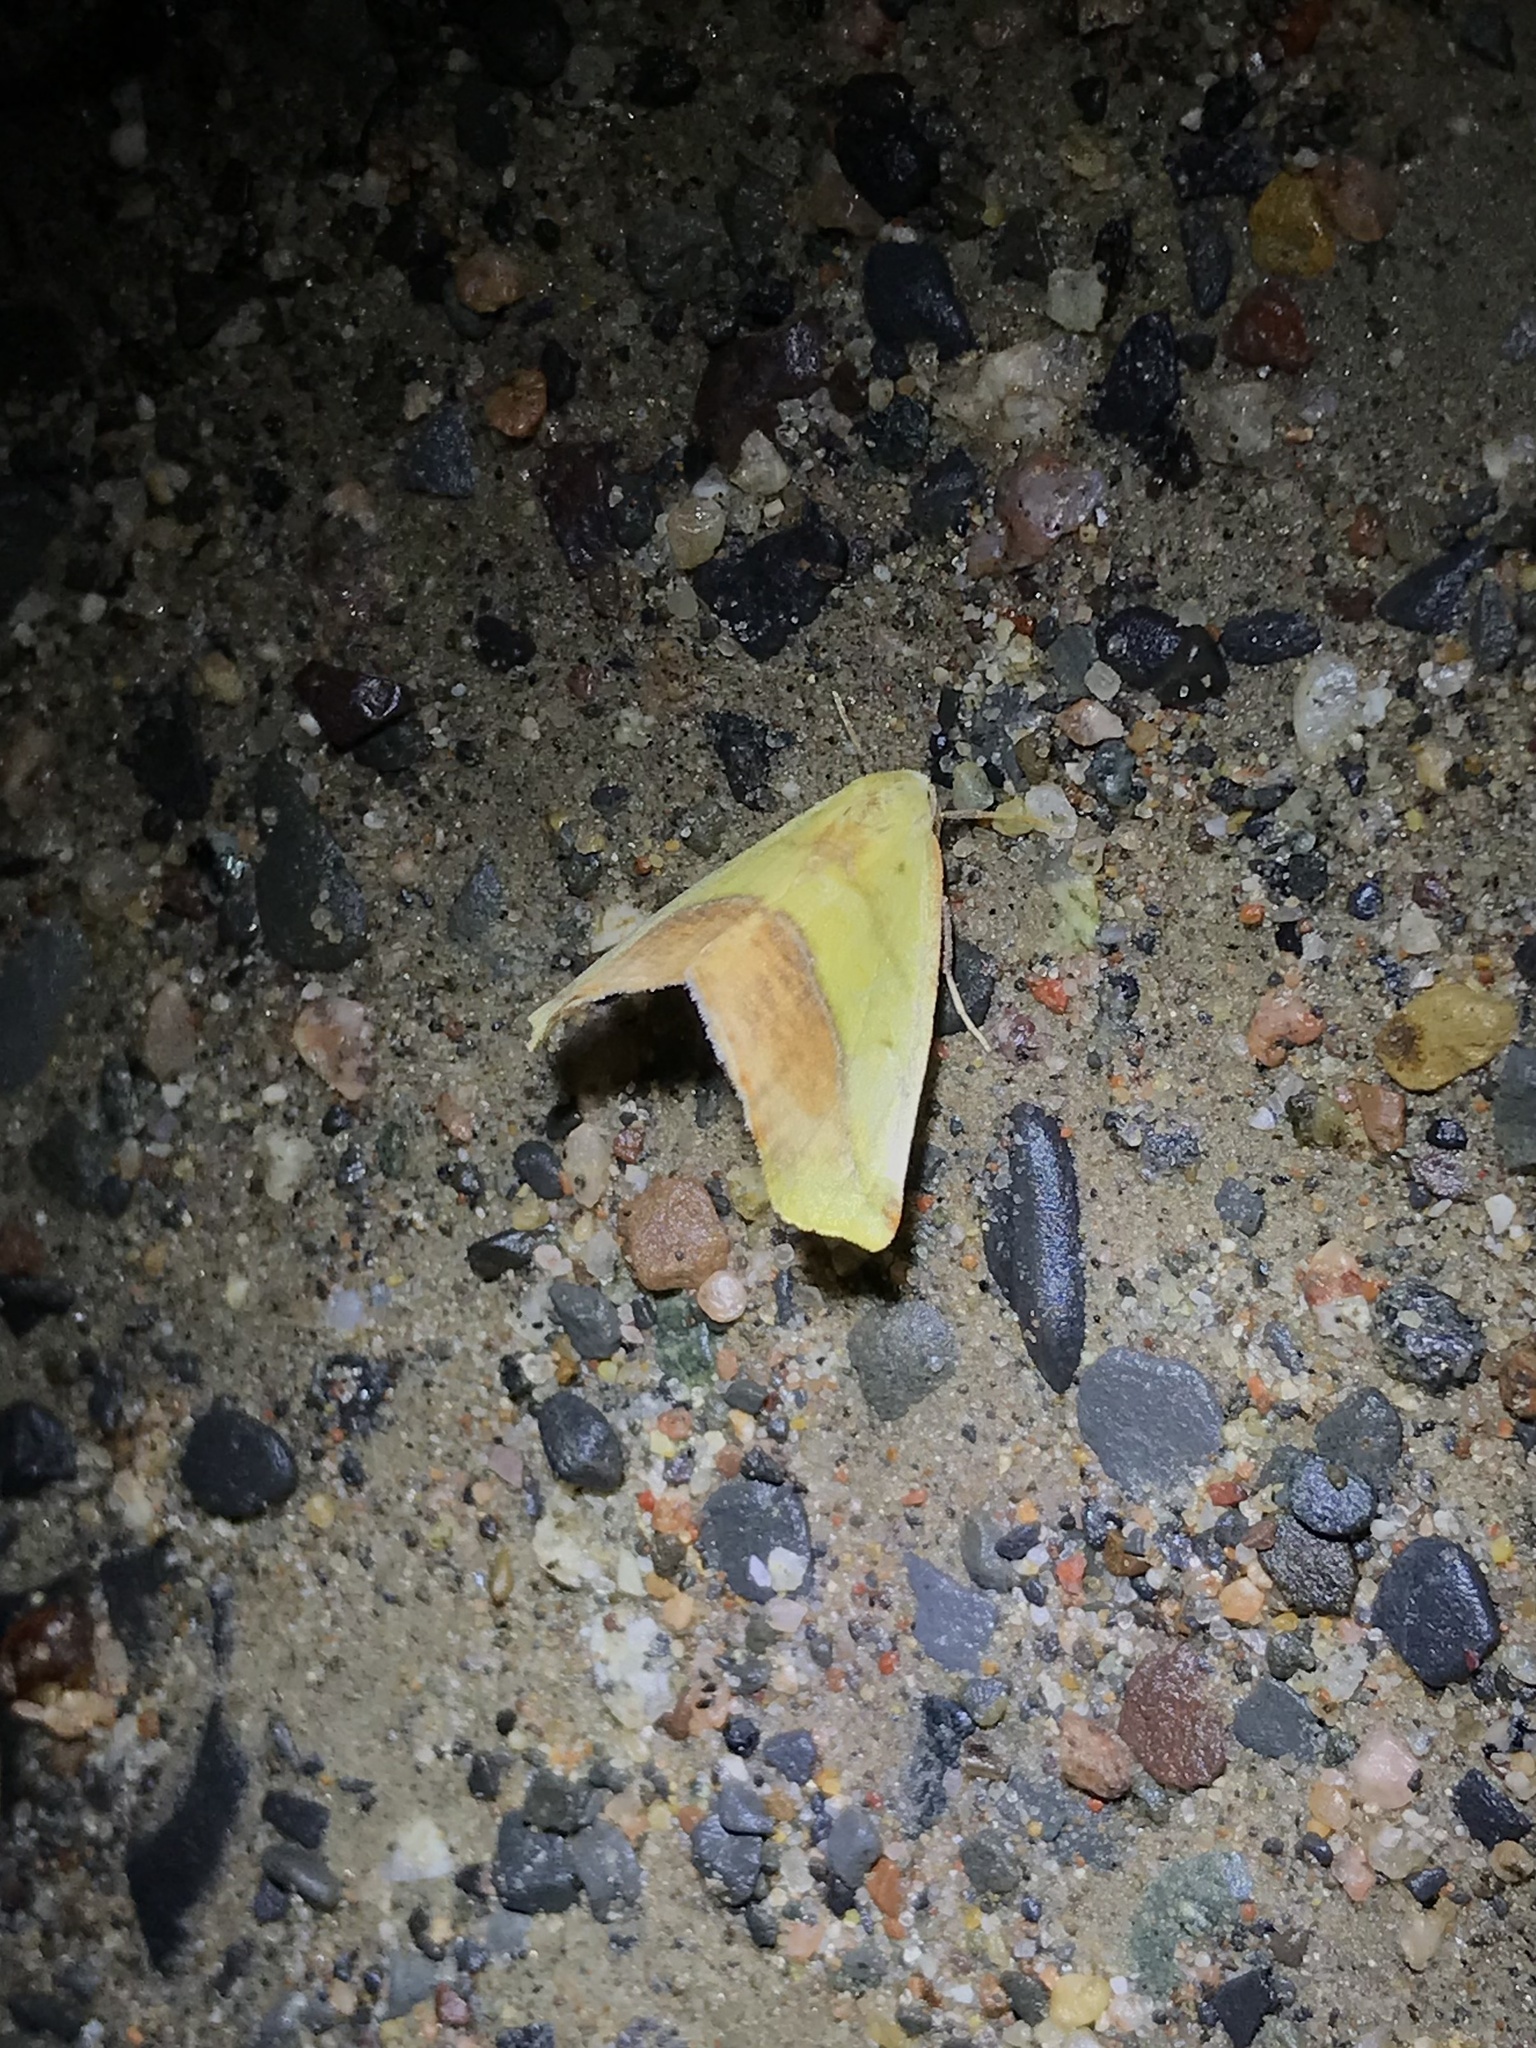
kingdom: Animalia
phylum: Arthropoda
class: Insecta
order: Lepidoptera
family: Geometridae
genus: Sicya
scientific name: Sicya macularia
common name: Sharp-lined yellow
